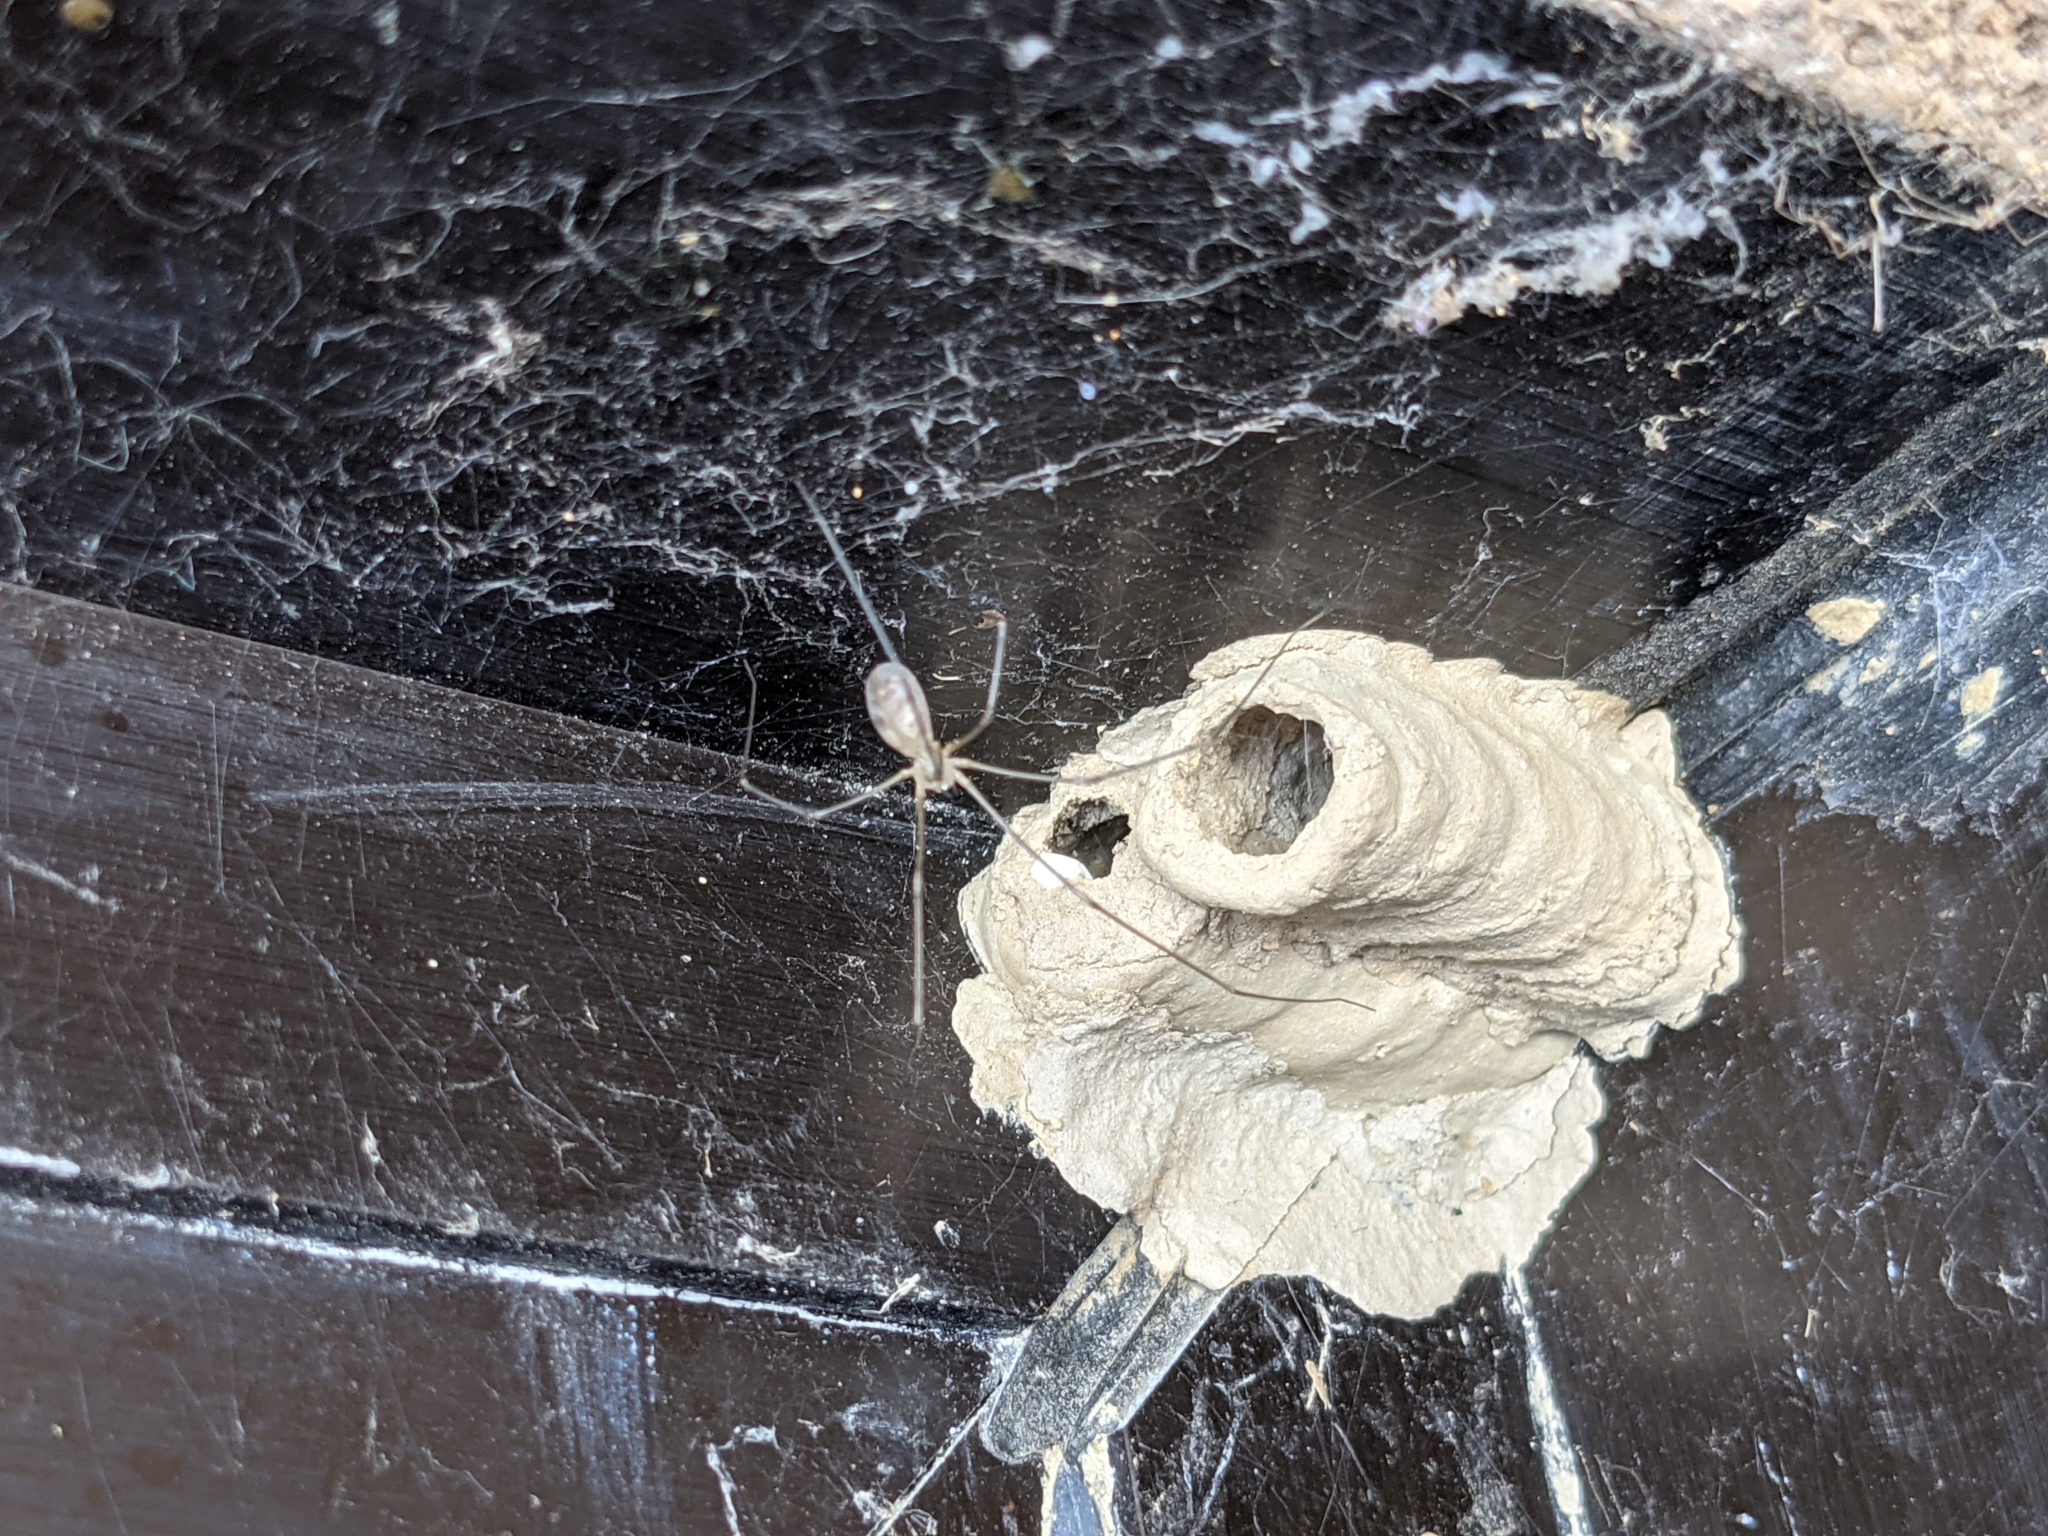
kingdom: Animalia
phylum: Arthropoda
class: Arachnida
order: Araneae
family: Pholcidae
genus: Pholcus
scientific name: Pholcus phalangioides
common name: Longbodied cellar spider
